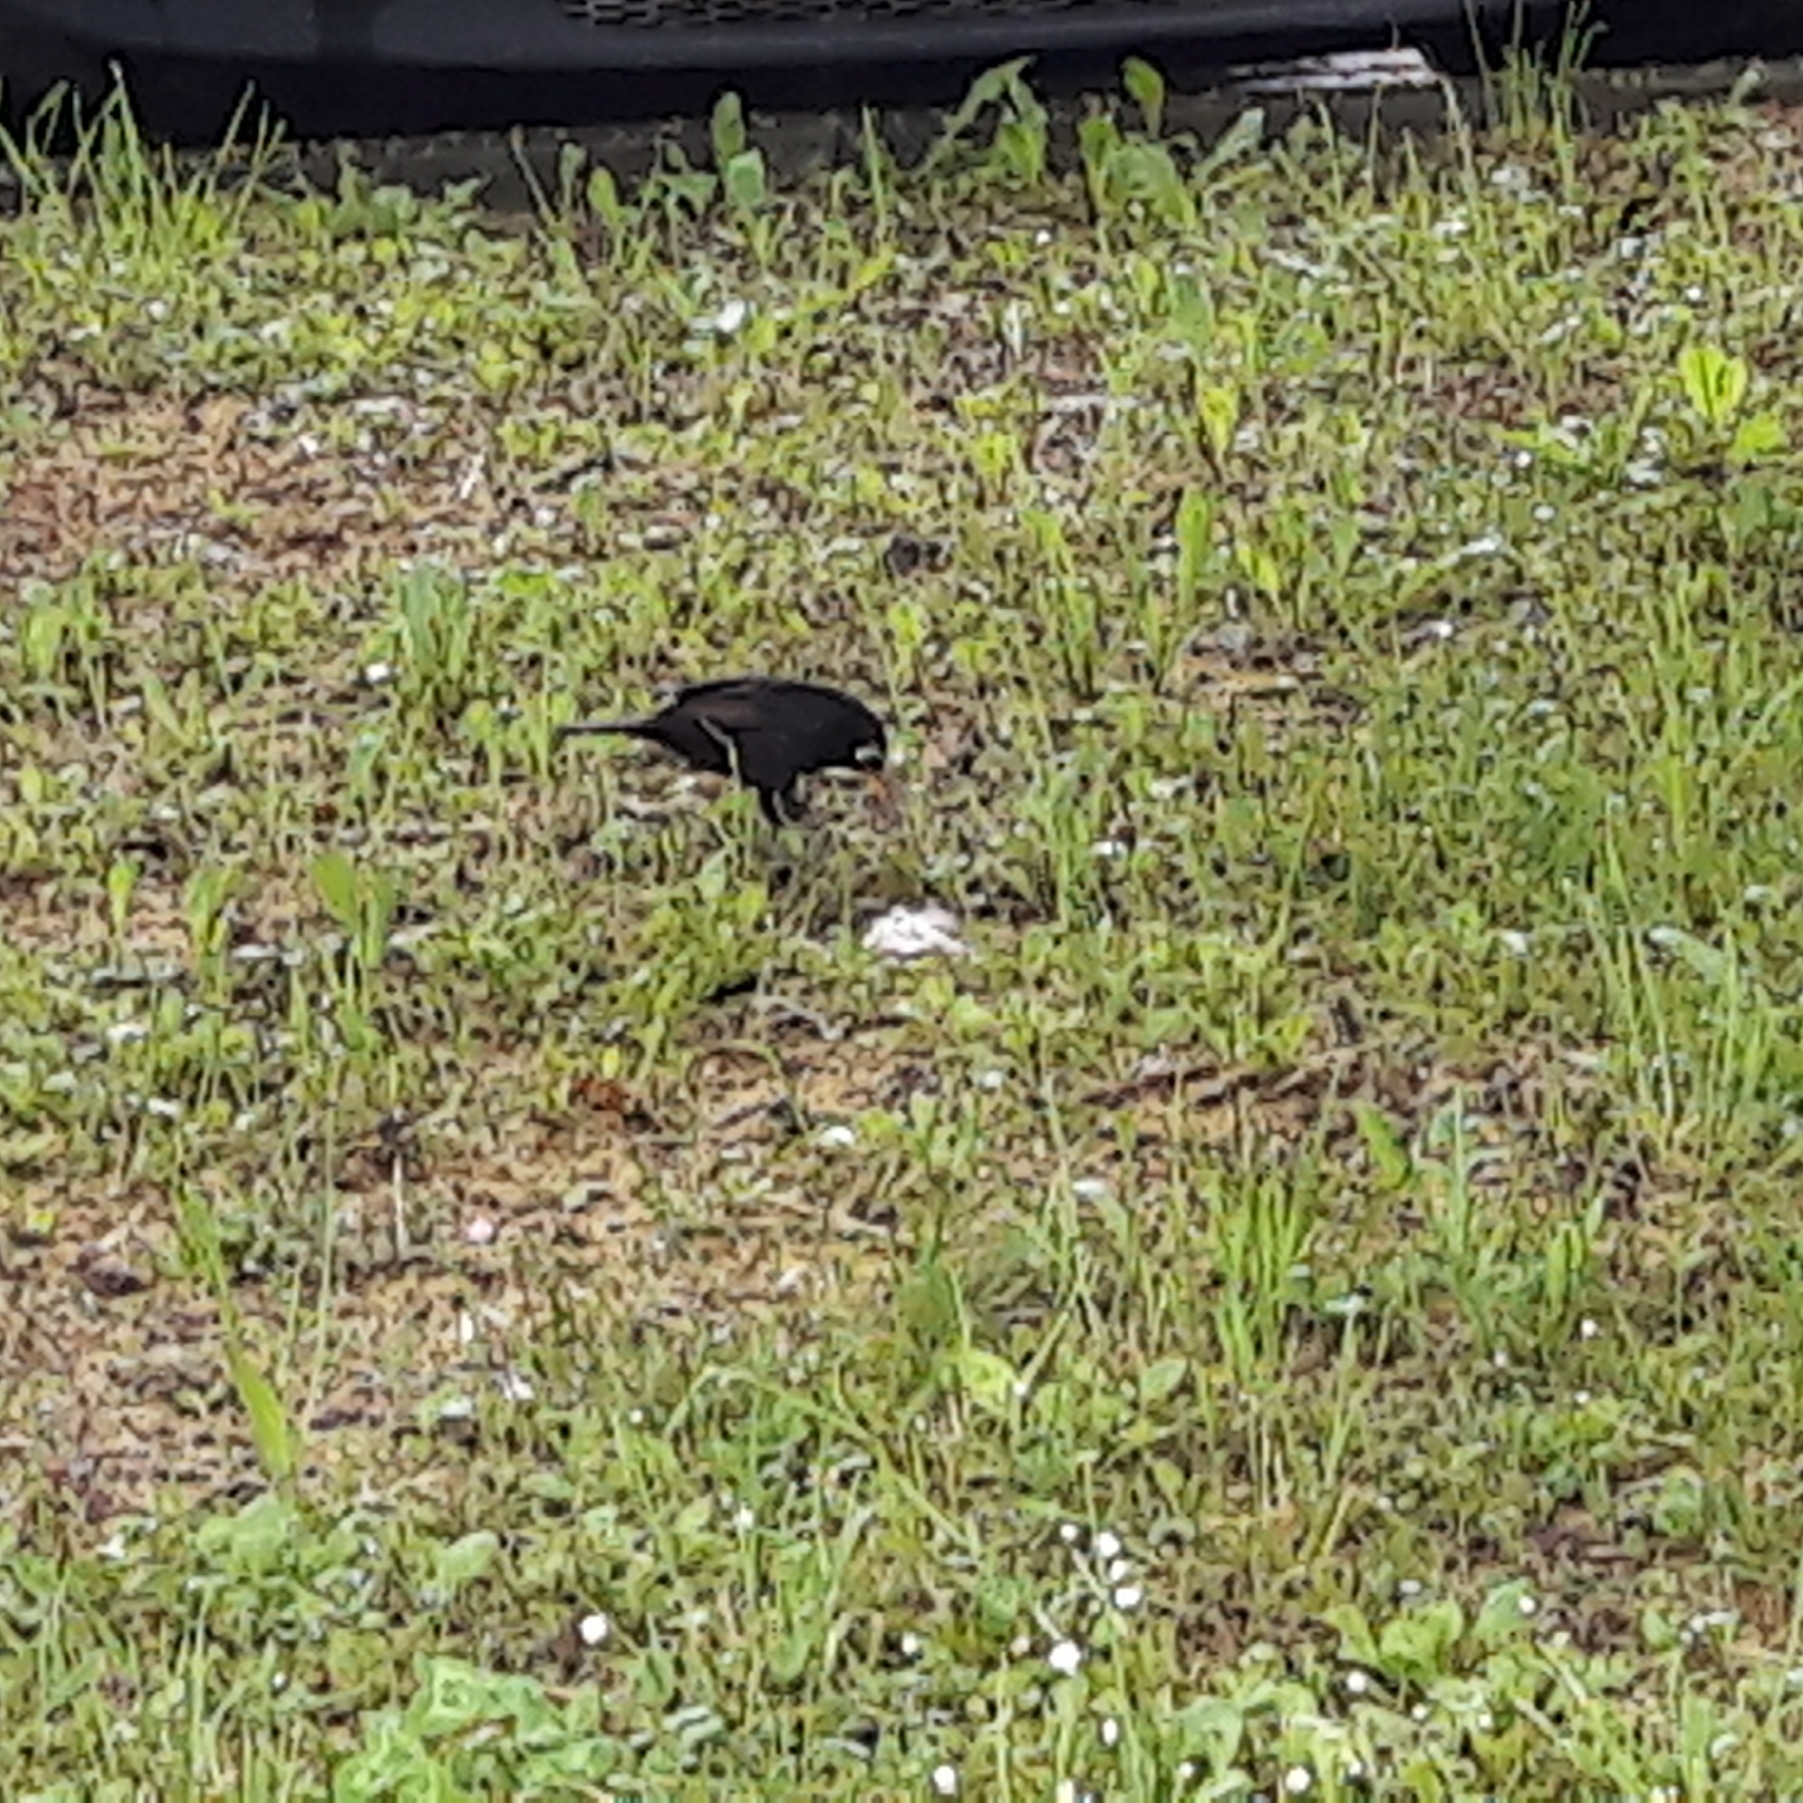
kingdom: Animalia
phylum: Chordata
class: Aves
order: Passeriformes
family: Turdidae
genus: Turdus
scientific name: Turdus merula
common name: Common blackbird
